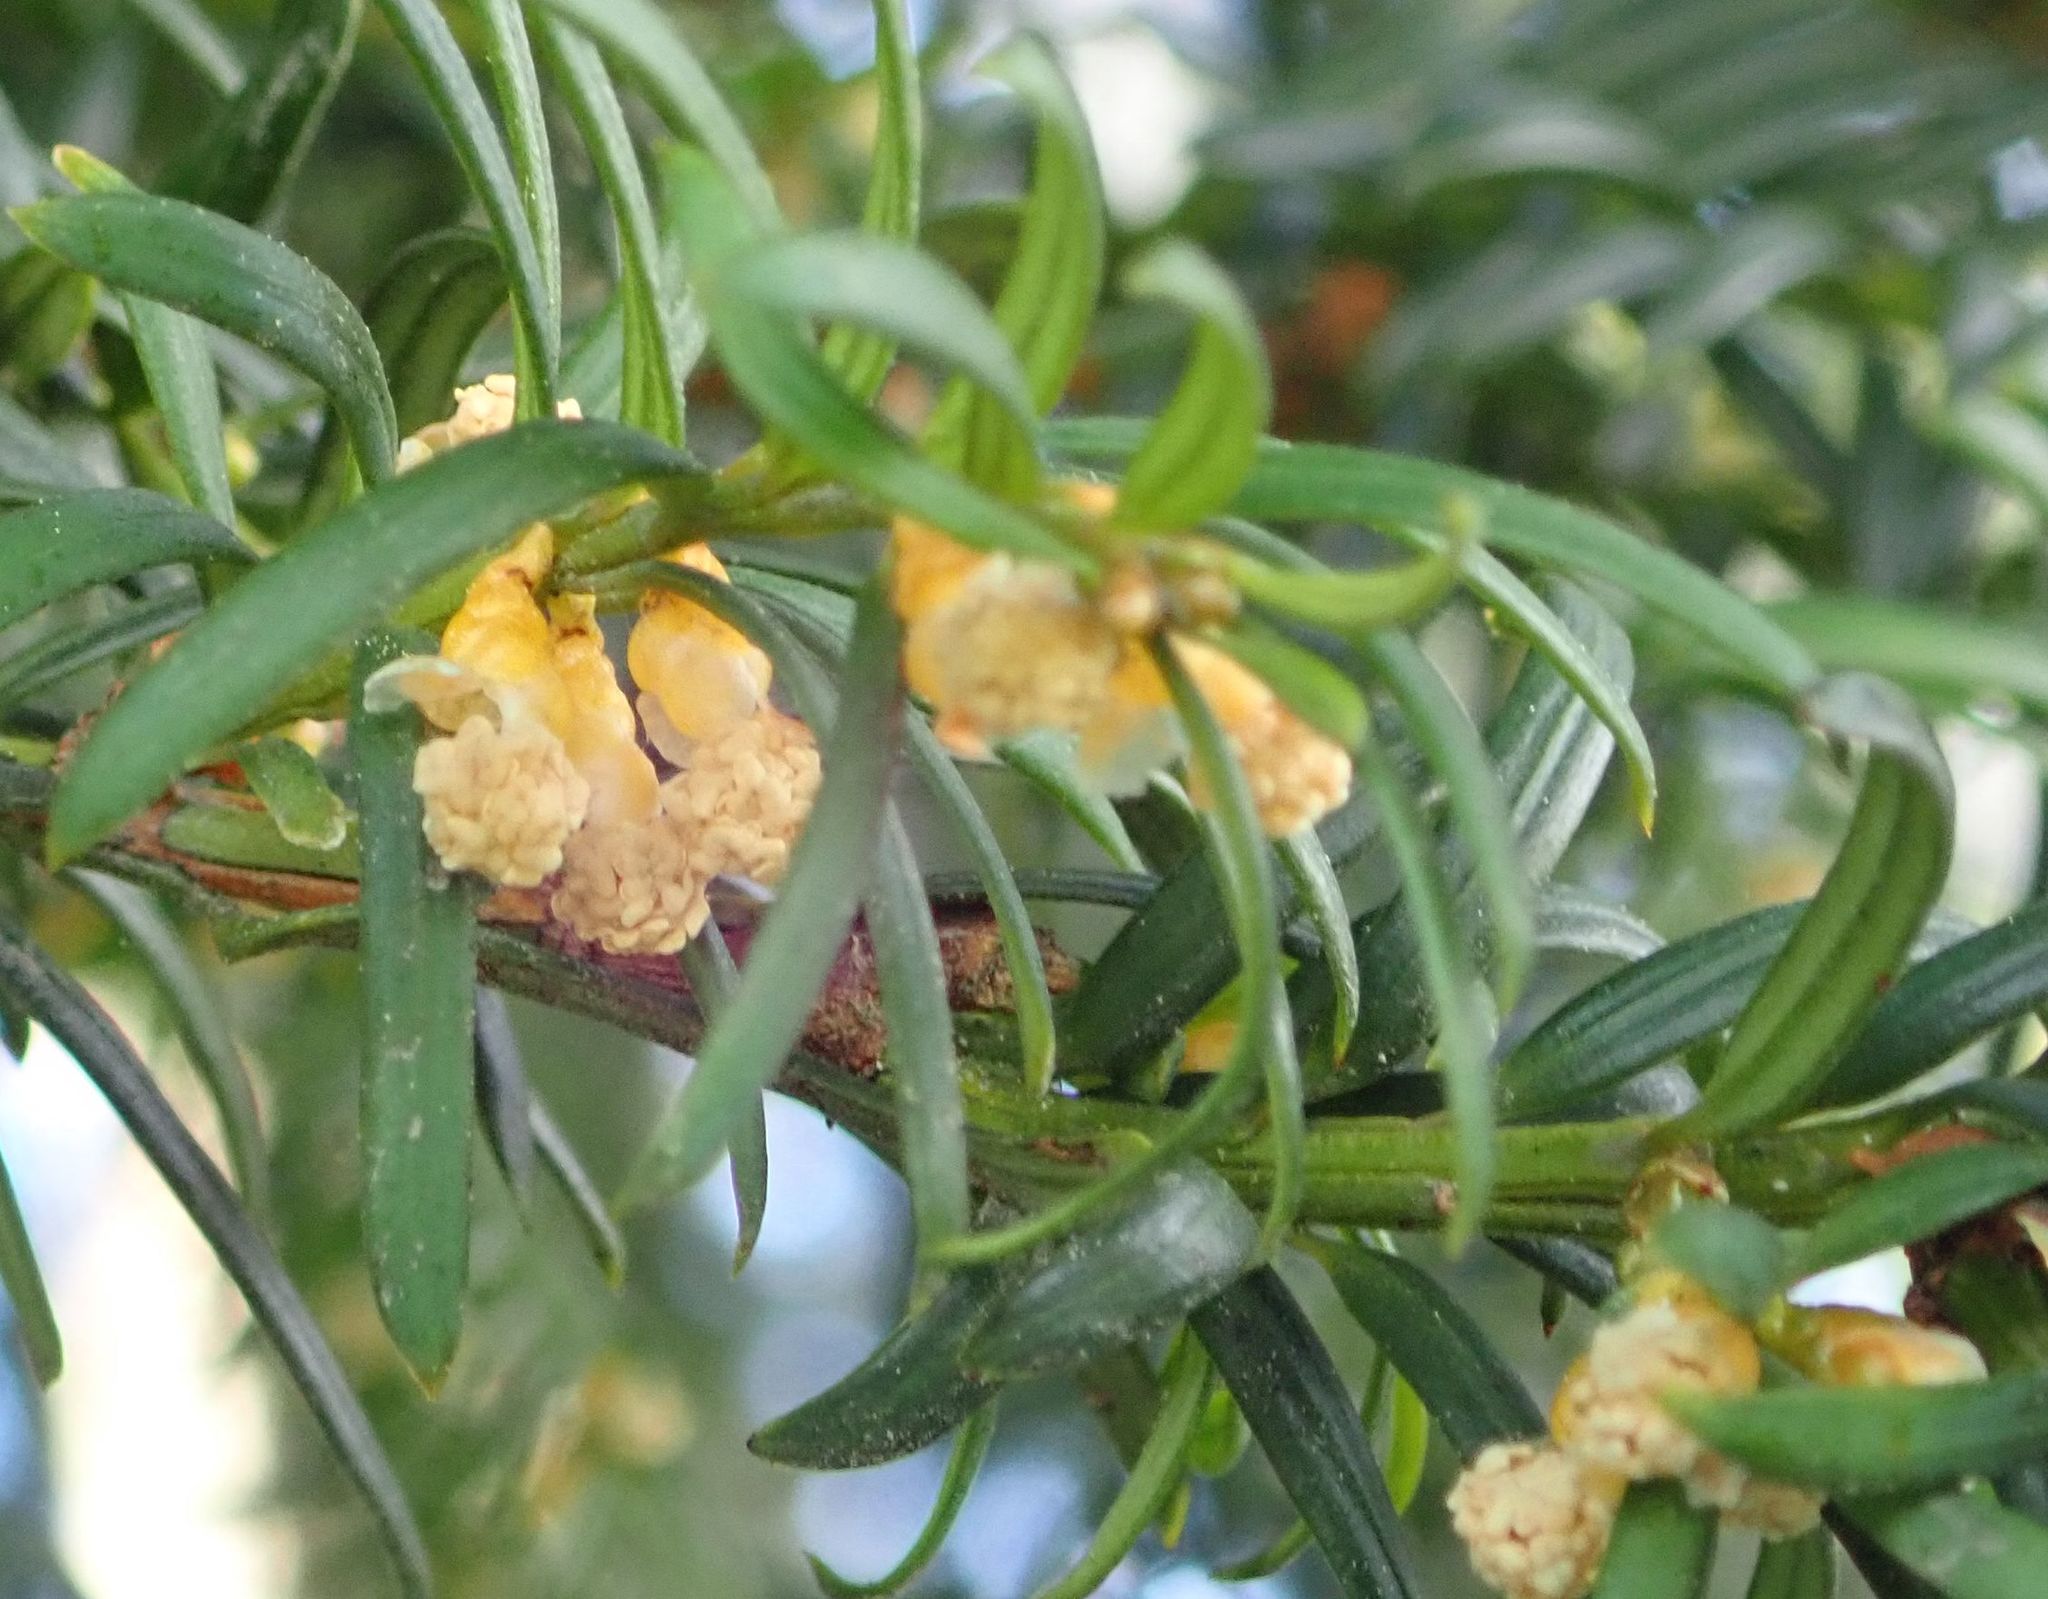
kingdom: Plantae
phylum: Tracheophyta
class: Pinopsida
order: Pinales
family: Taxaceae
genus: Taxus
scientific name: Taxus baccata
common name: Yew
